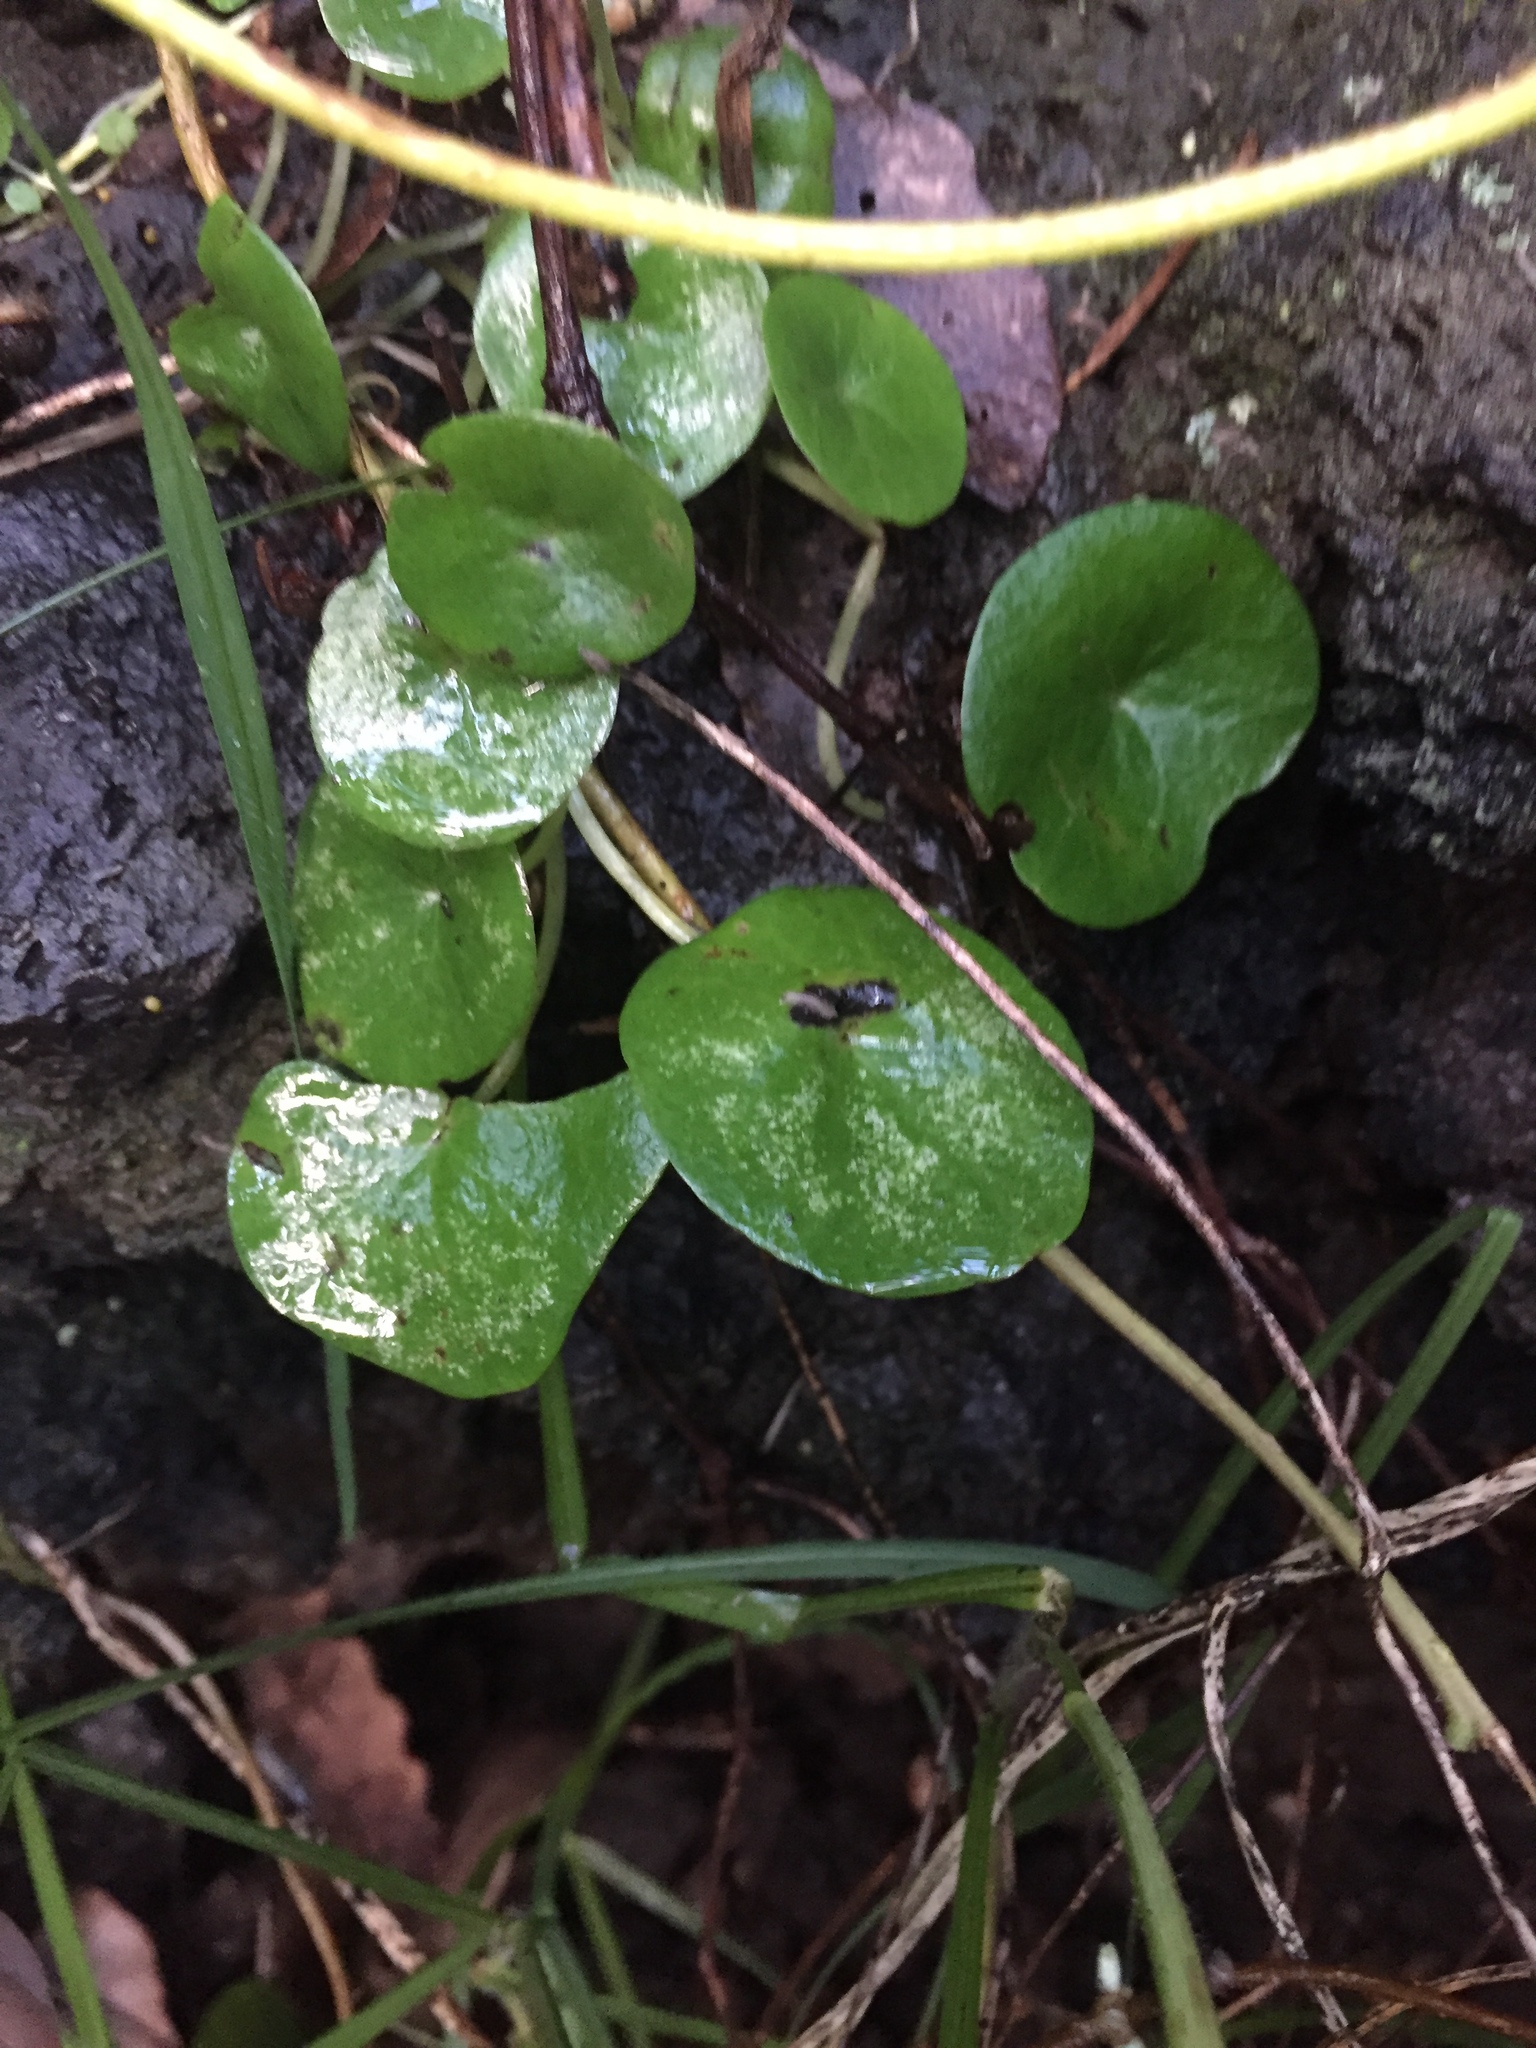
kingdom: Plantae
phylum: Tracheophyta
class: Magnoliopsida
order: Piperales
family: Piperaceae
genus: Peperomia
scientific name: Peperomia bracteata
